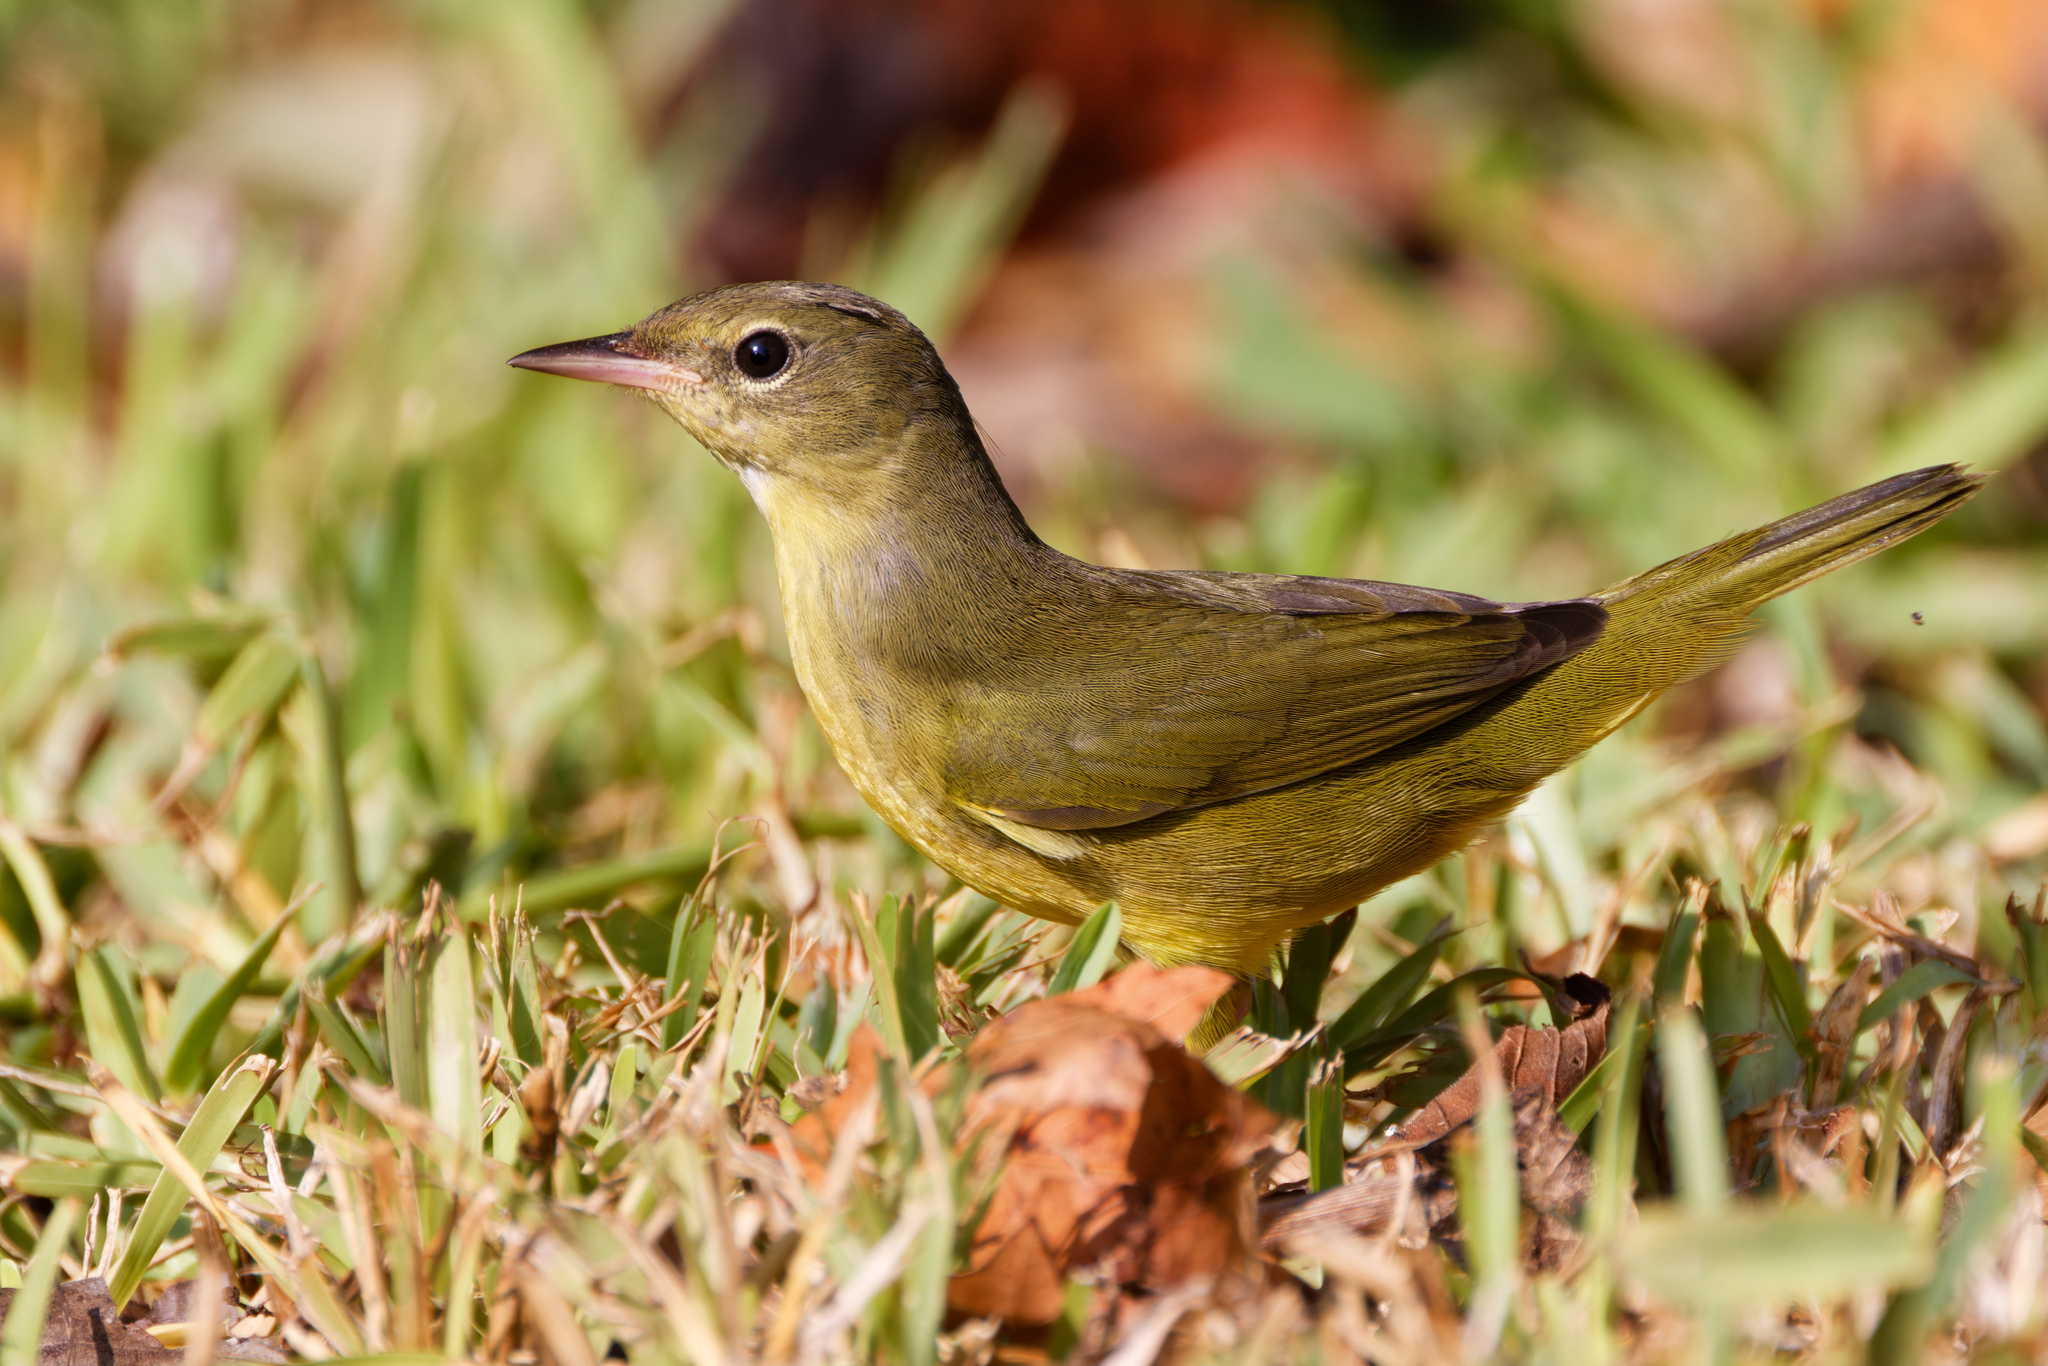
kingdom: Animalia
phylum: Chordata
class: Aves
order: Passeriformes
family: Parulidae
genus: Geothlypis
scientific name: Geothlypis philadelphia
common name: Mourning warbler
